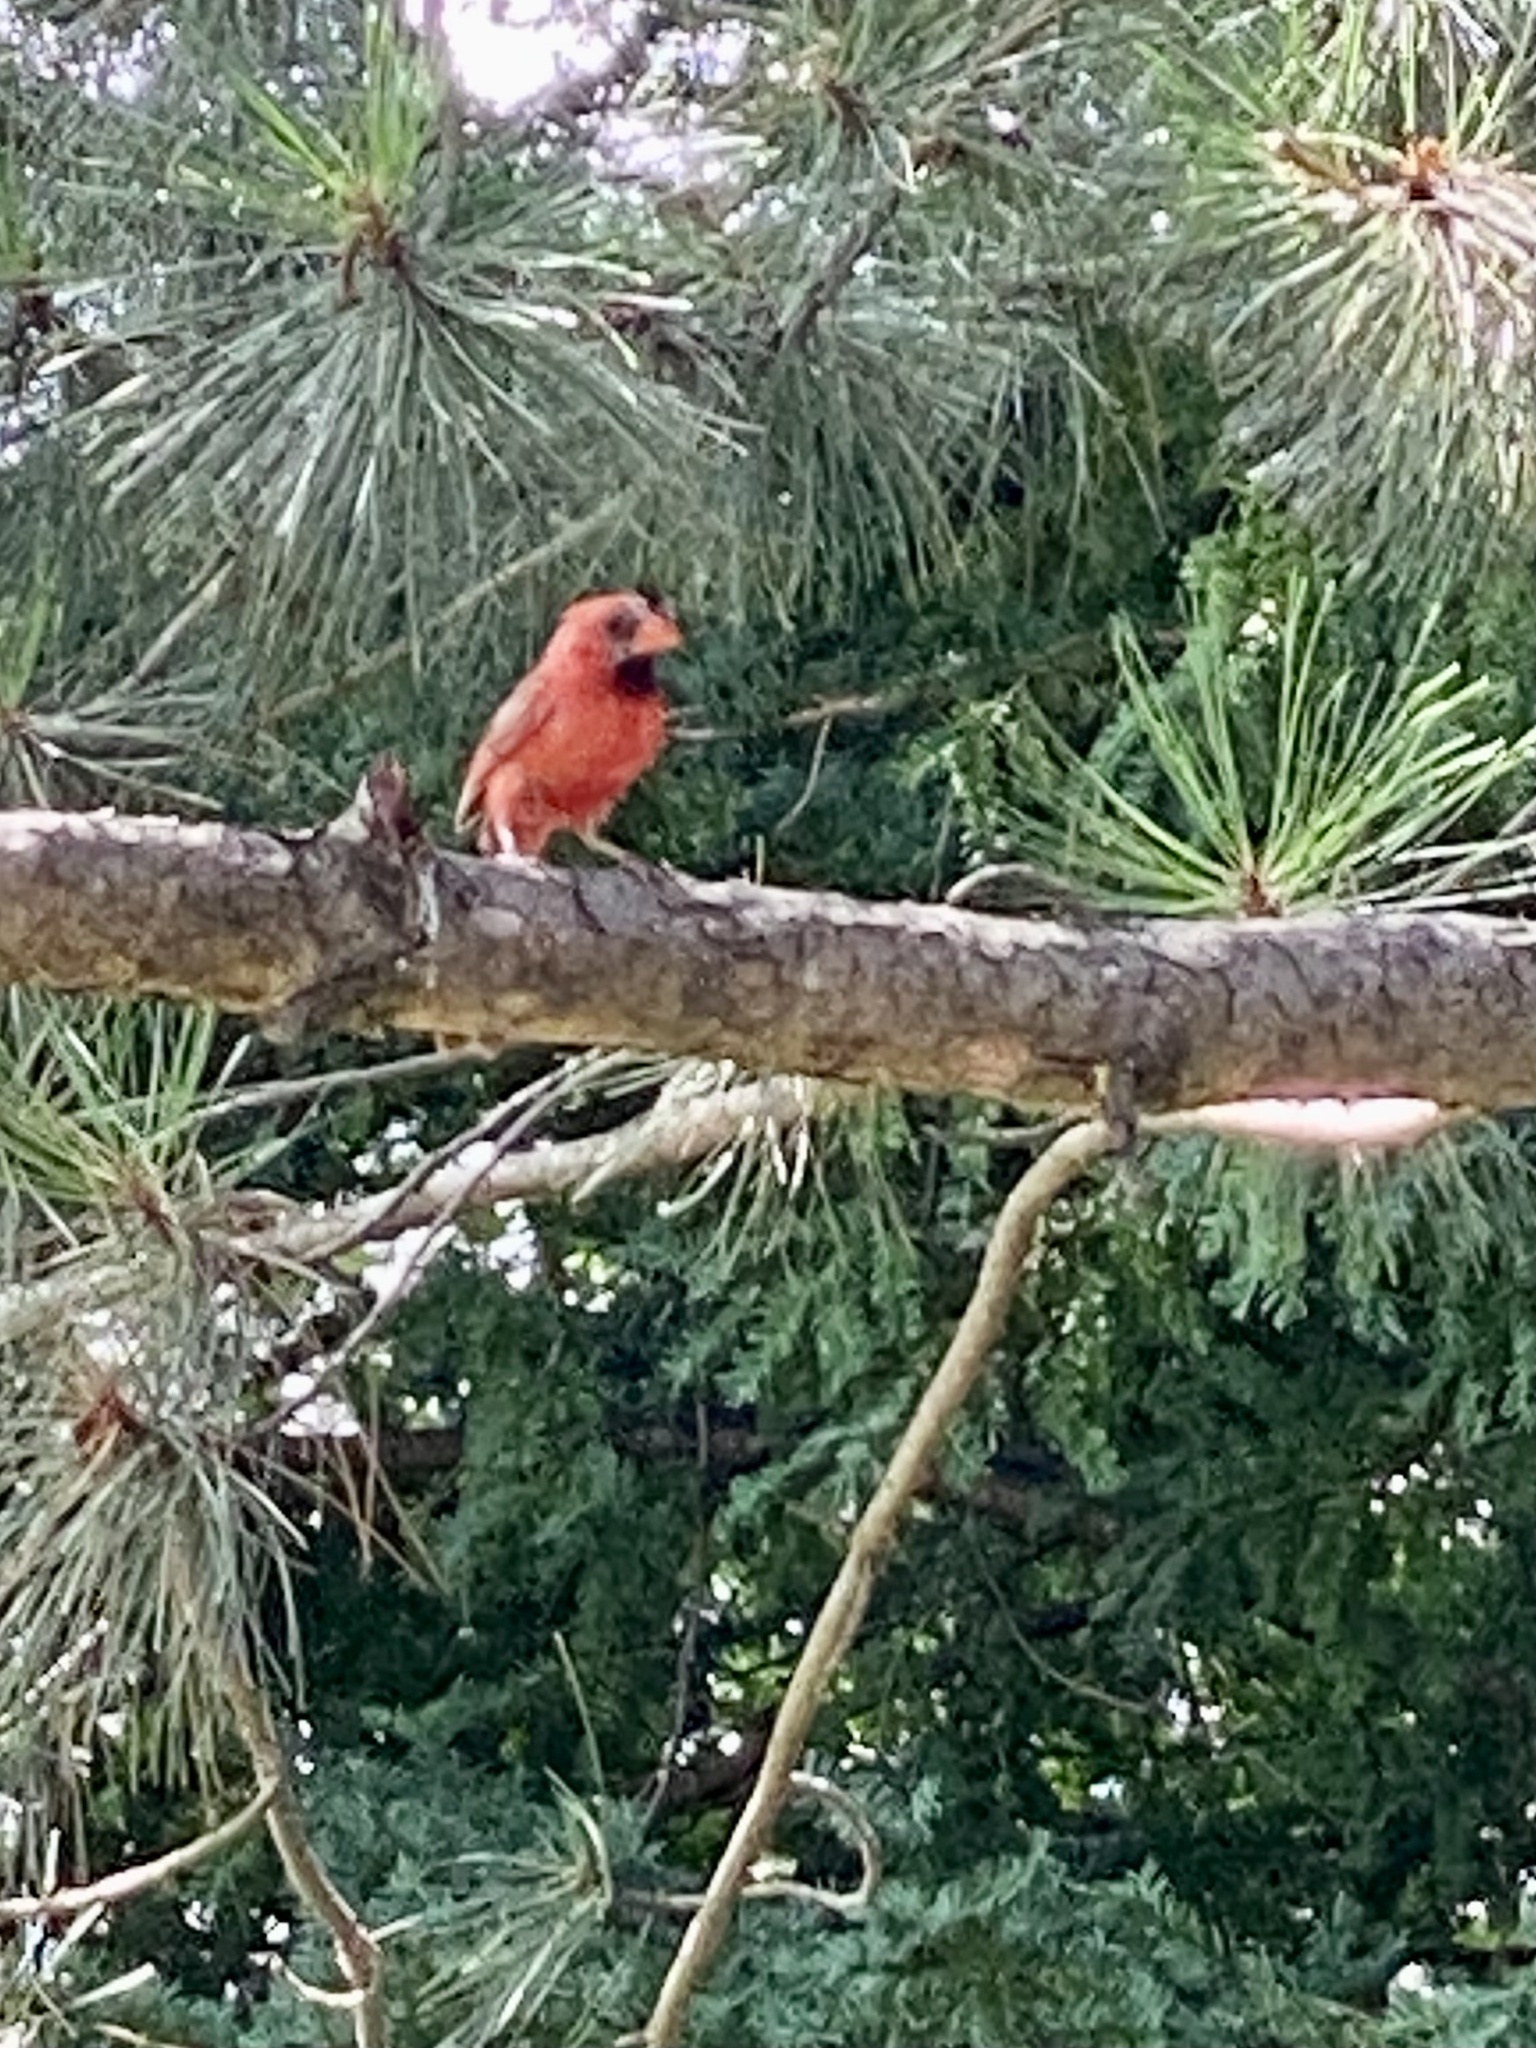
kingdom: Animalia
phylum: Chordata
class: Aves
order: Passeriformes
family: Cardinalidae
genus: Cardinalis
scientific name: Cardinalis cardinalis
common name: Northern cardinal
